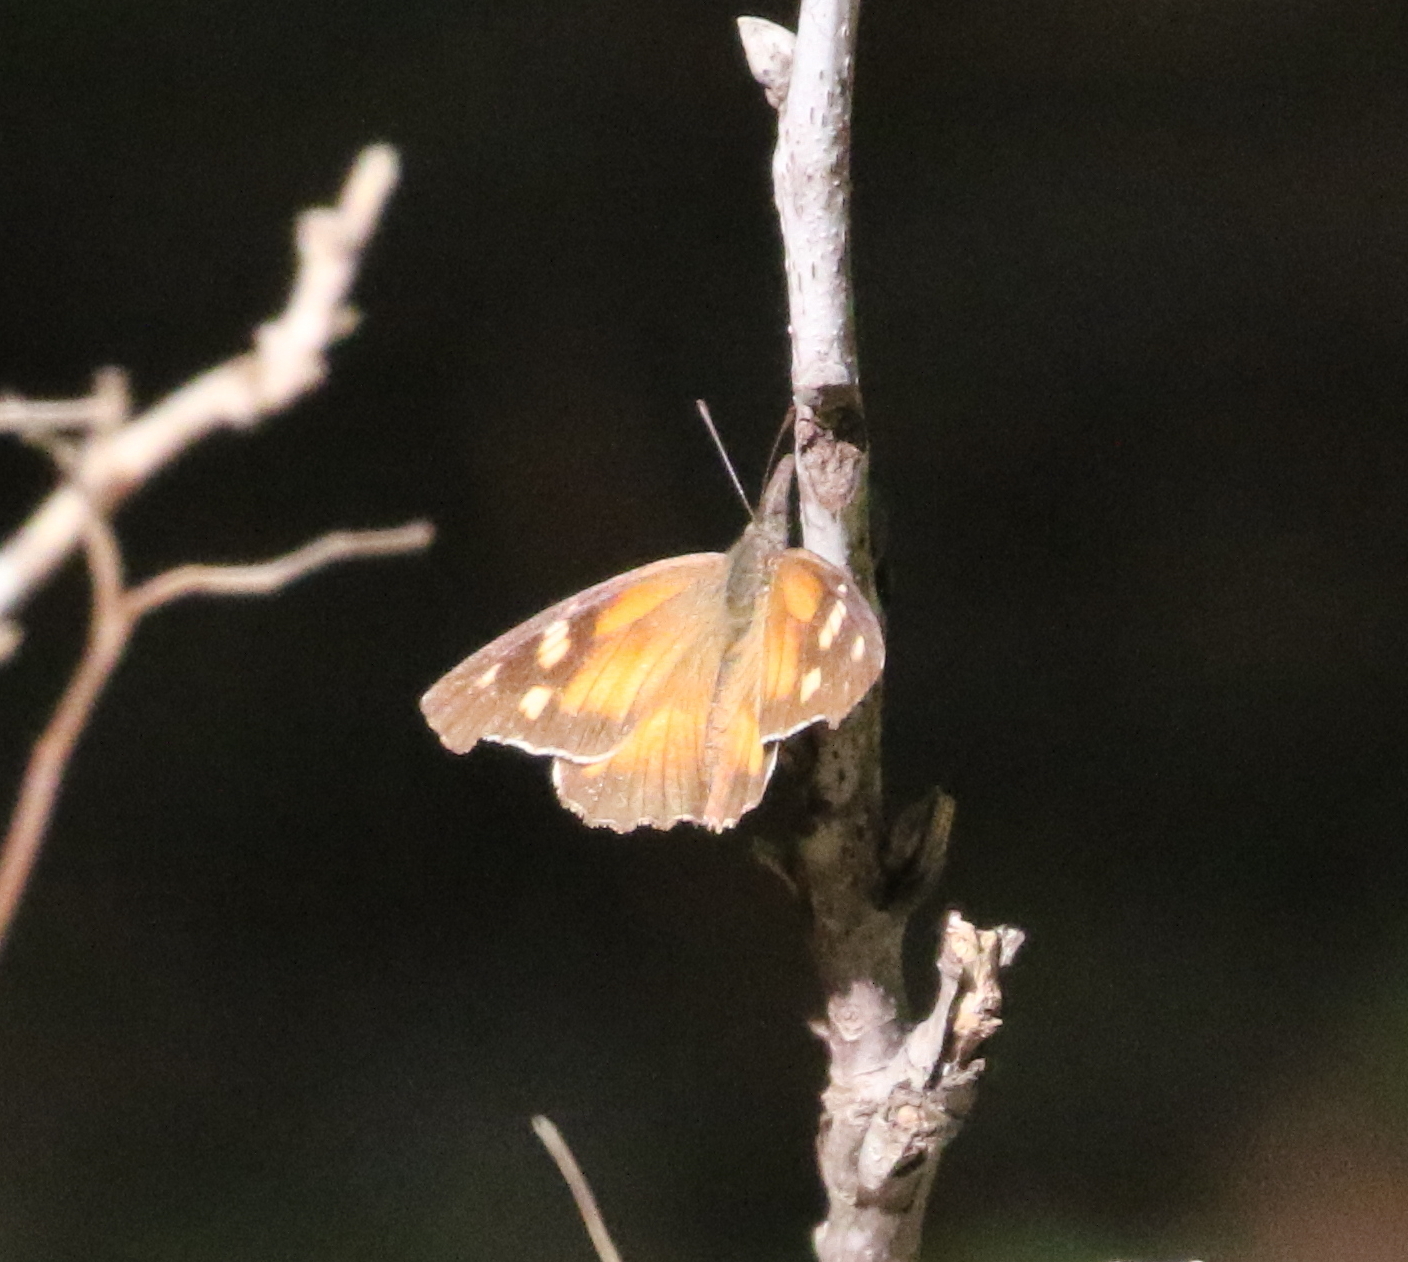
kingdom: Animalia
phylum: Arthropoda
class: Insecta
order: Lepidoptera
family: Nymphalidae
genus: Libytheana
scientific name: Libytheana carinenta
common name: American snout
